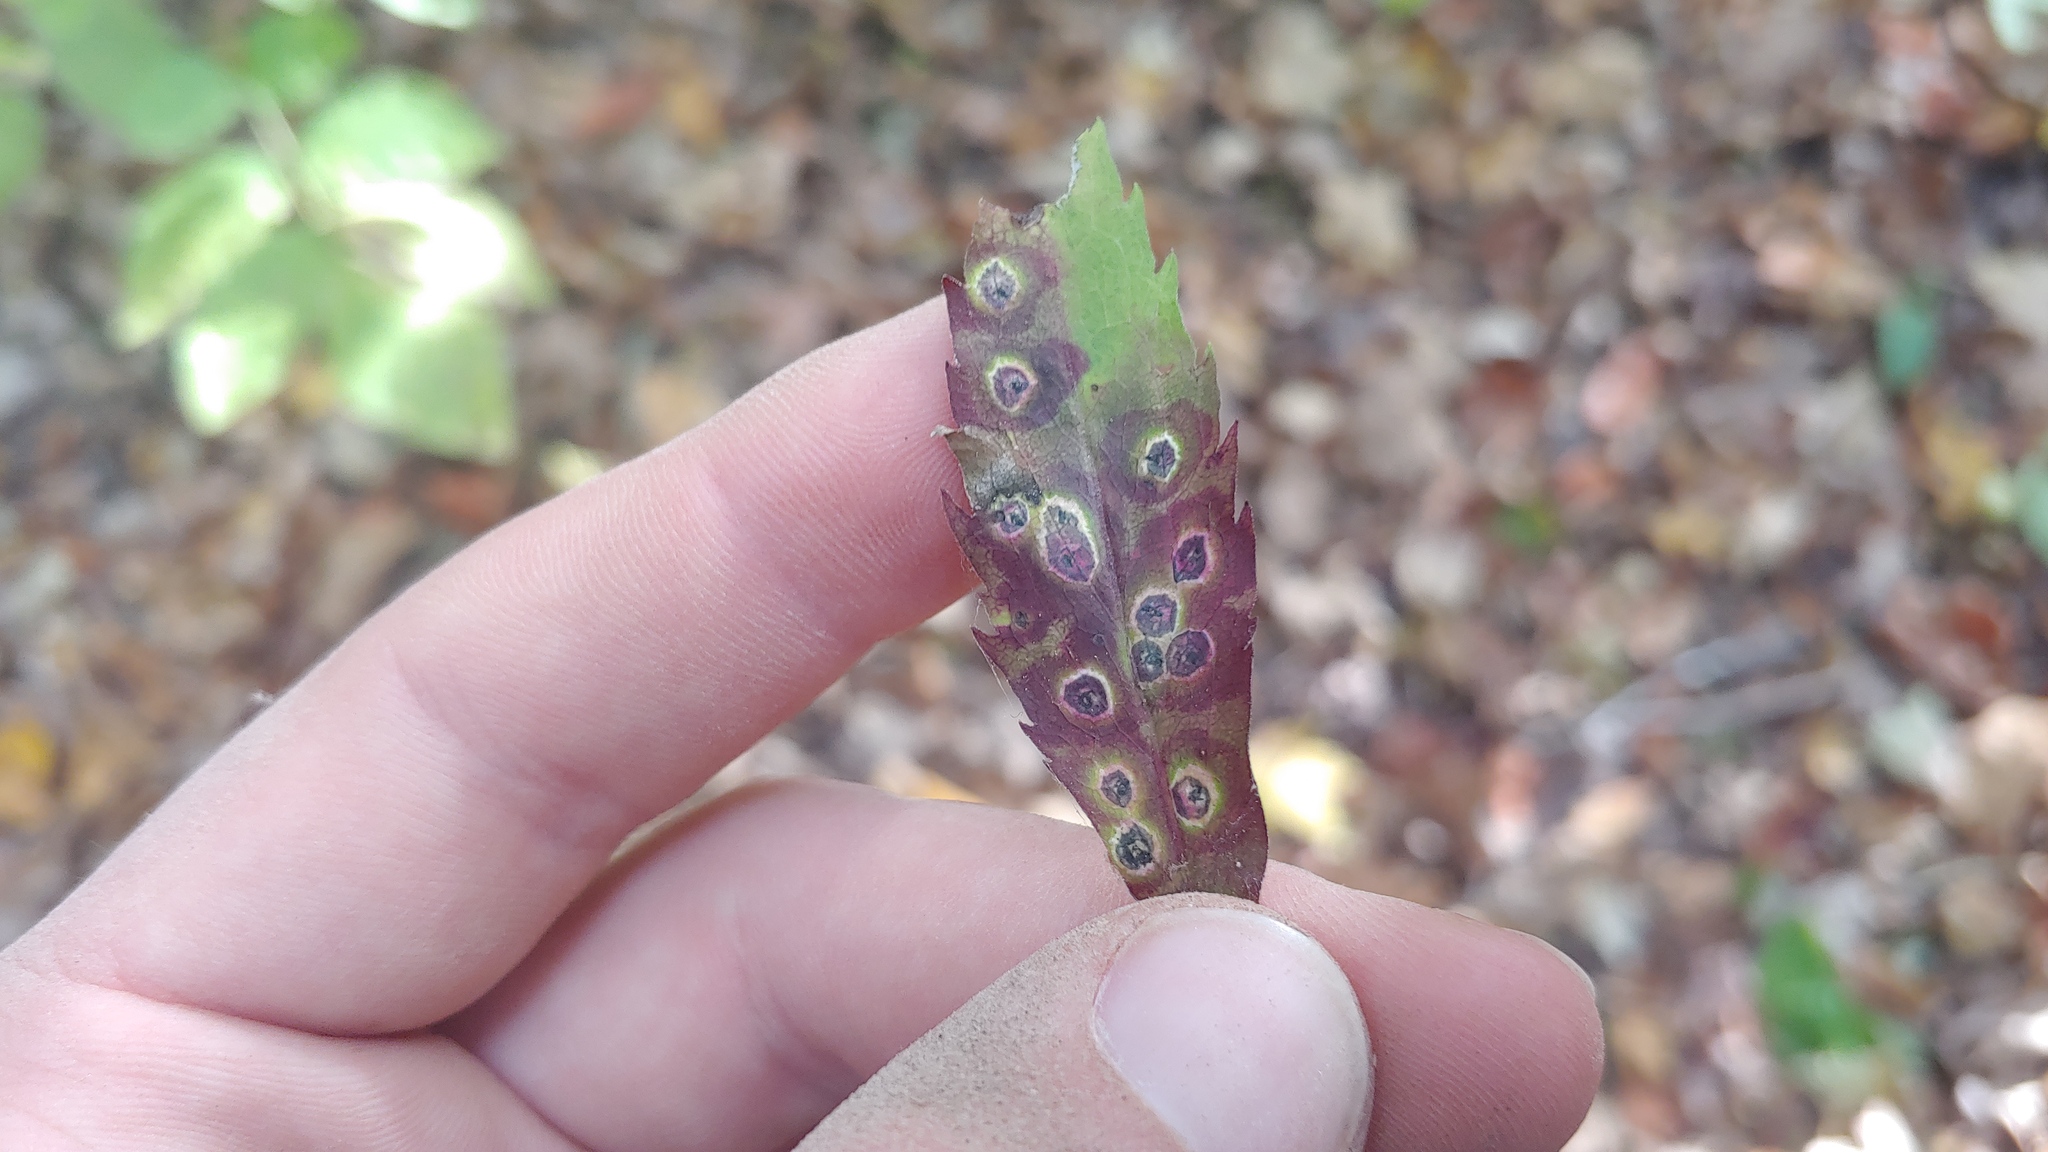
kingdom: Animalia
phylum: Arthropoda
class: Insecta
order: Diptera
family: Cecidomyiidae
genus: Asteromyia
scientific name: Asteromyia carbonifera
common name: Carbonifera goldenrod gall midge
